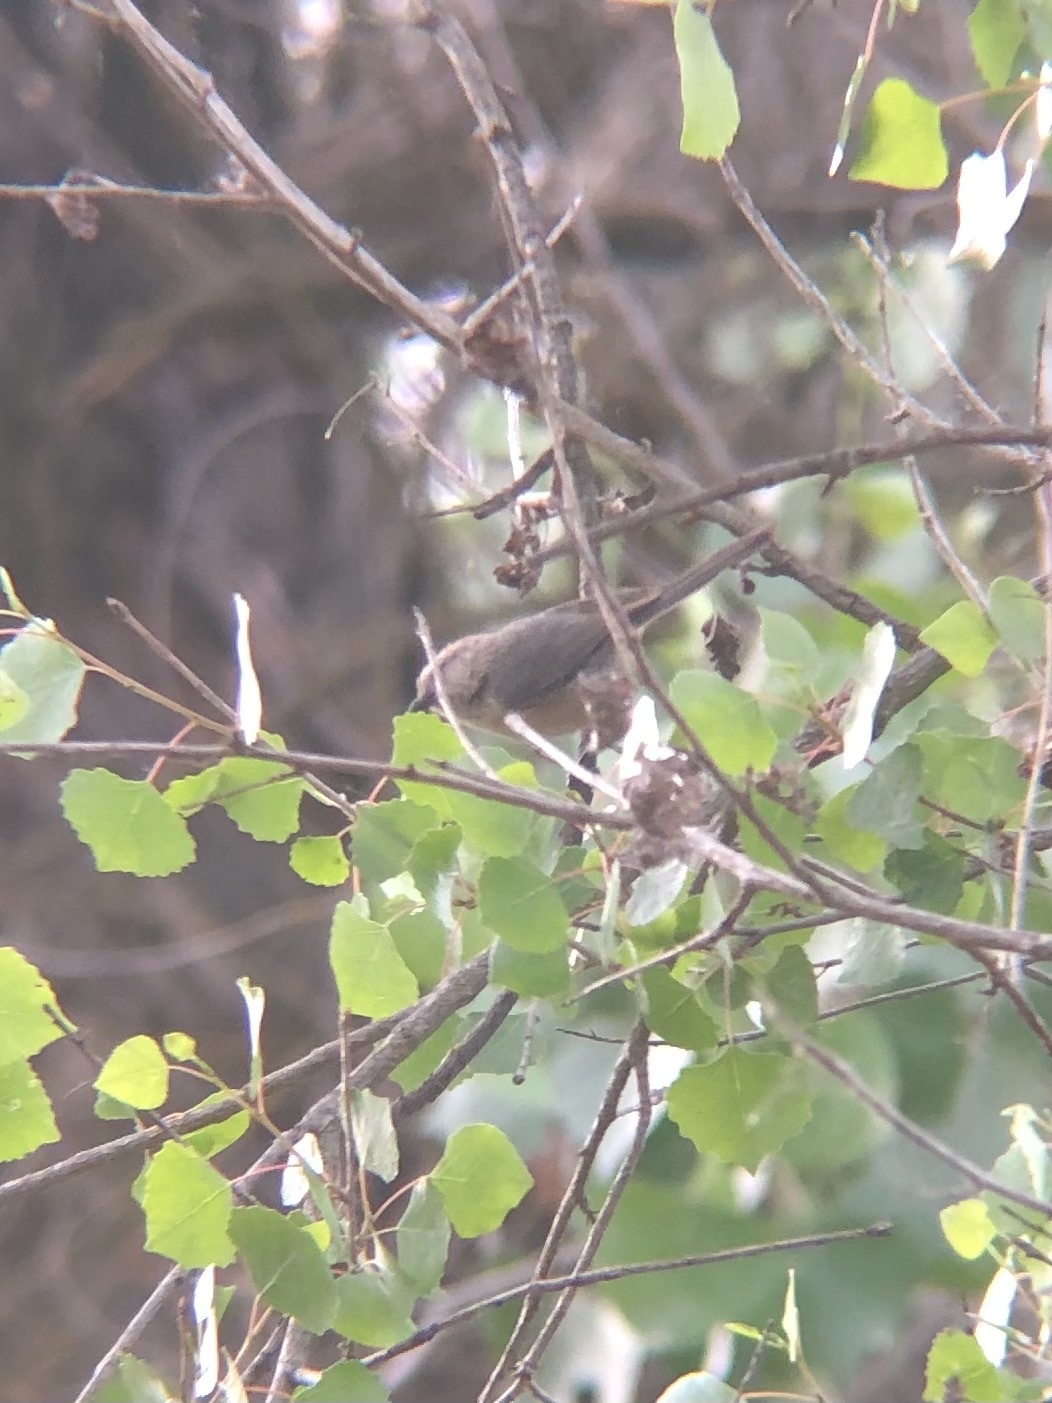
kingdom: Animalia
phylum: Chordata
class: Aves
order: Passeriformes
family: Aegithalidae
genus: Psaltriparus
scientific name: Psaltriparus minimus
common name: American bushtit
